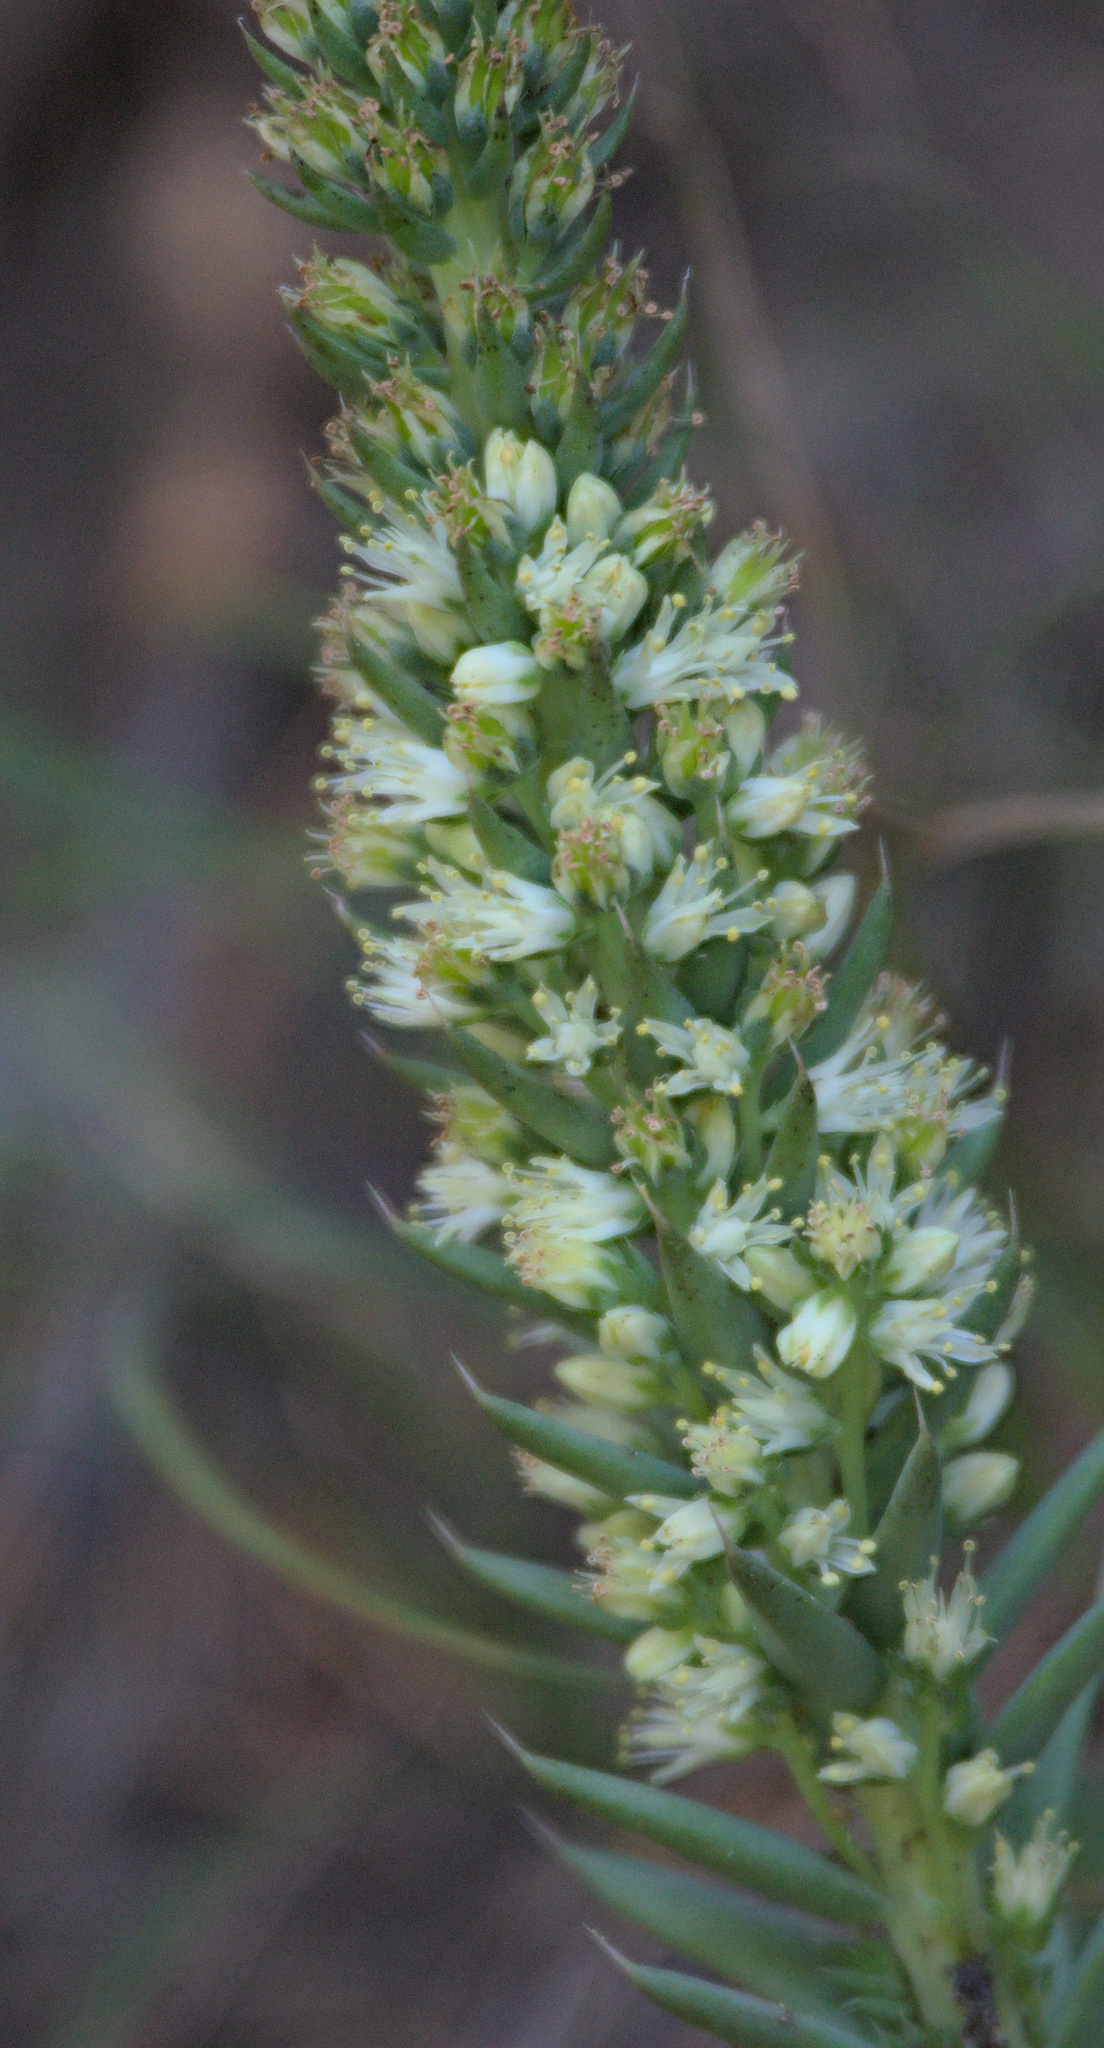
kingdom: Plantae
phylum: Tracheophyta
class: Magnoliopsida
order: Saxifragales
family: Crassulaceae
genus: Orostachys
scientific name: Orostachys spinosa
